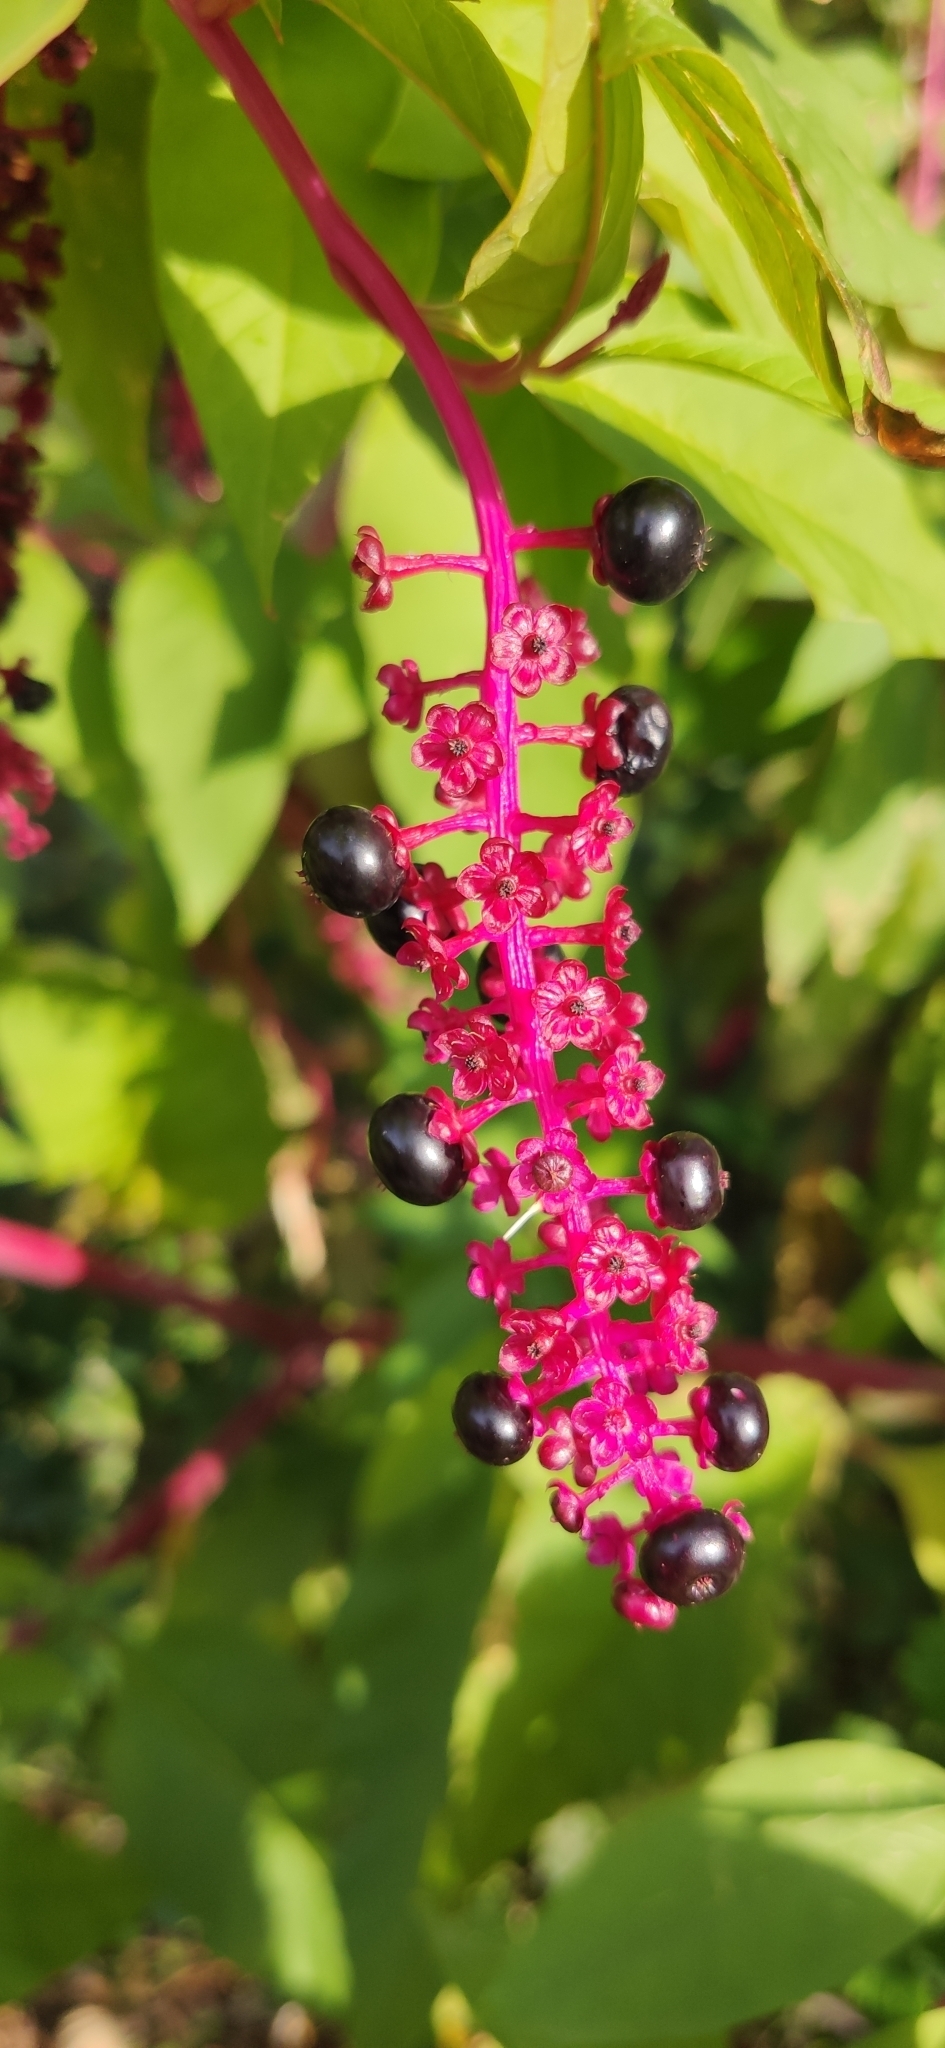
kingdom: Plantae
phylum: Tracheophyta
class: Magnoliopsida
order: Caryophyllales
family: Phytolaccaceae
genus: Phytolacca
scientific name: Phytolacca americana
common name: American pokeweed
